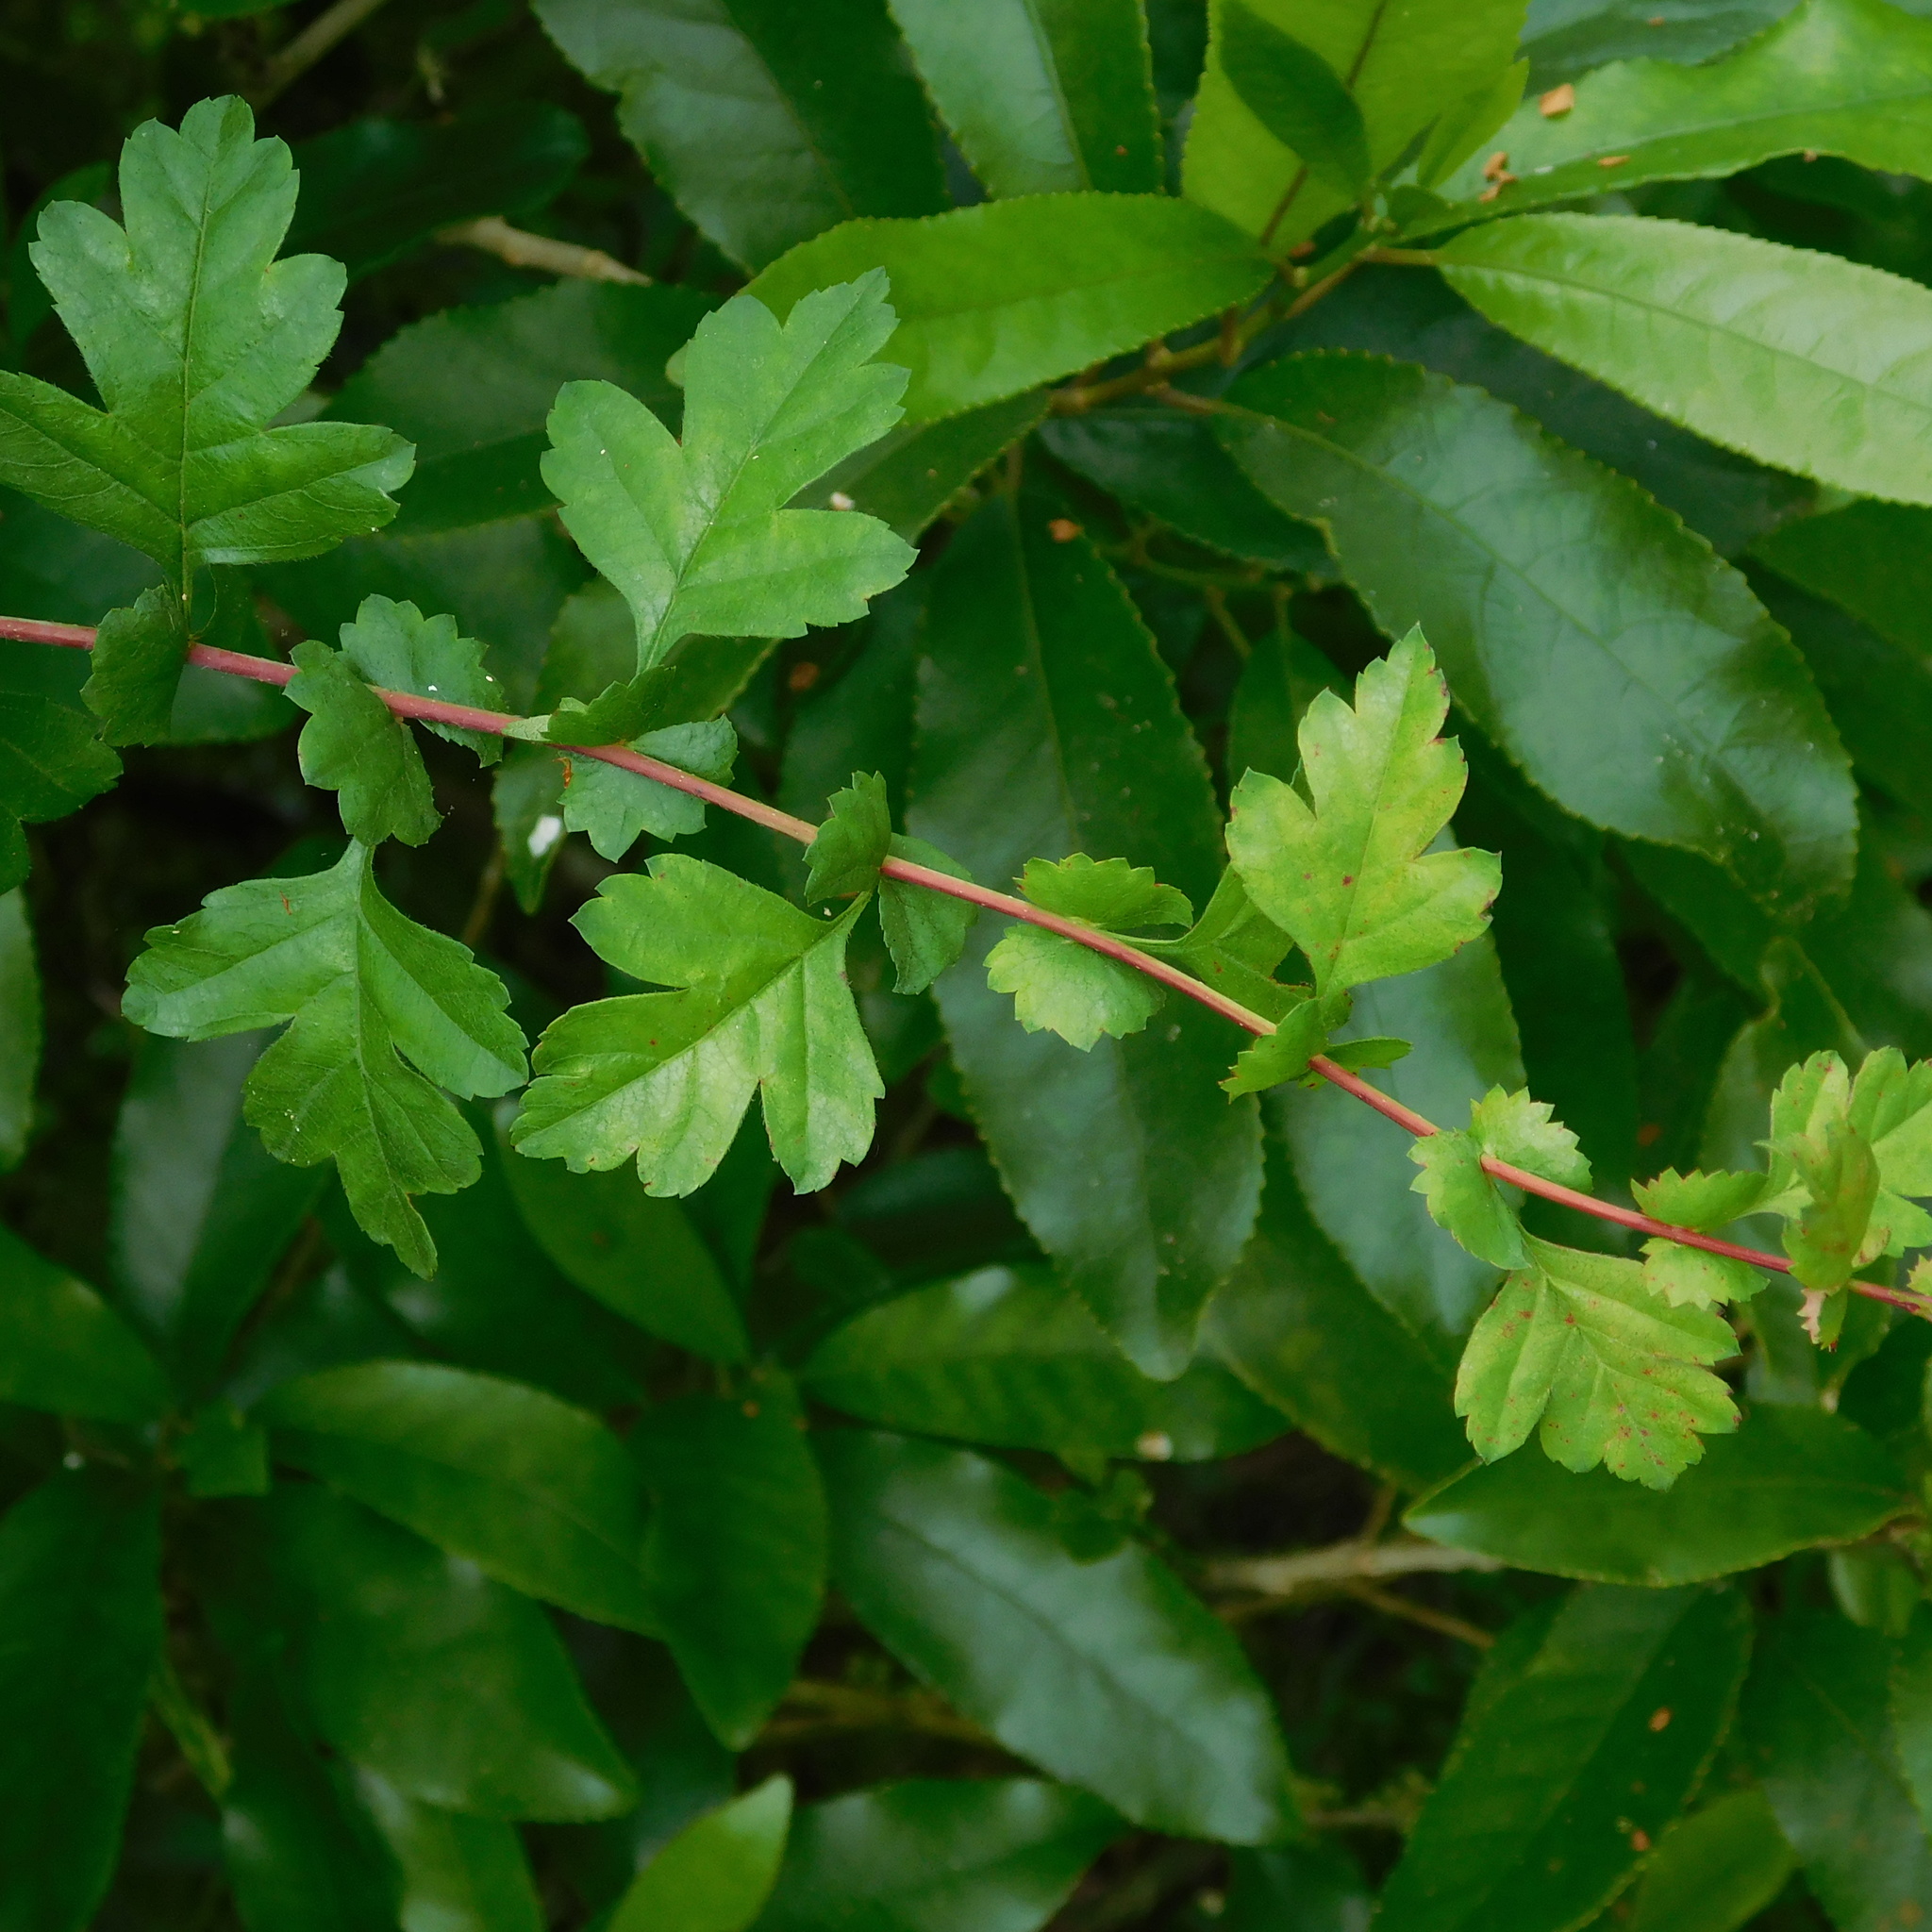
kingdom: Plantae
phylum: Tracheophyta
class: Magnoliopsida
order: Rosales
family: Rosaceae
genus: Crataegus
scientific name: Crataegus monogyna
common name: Hawthorn
